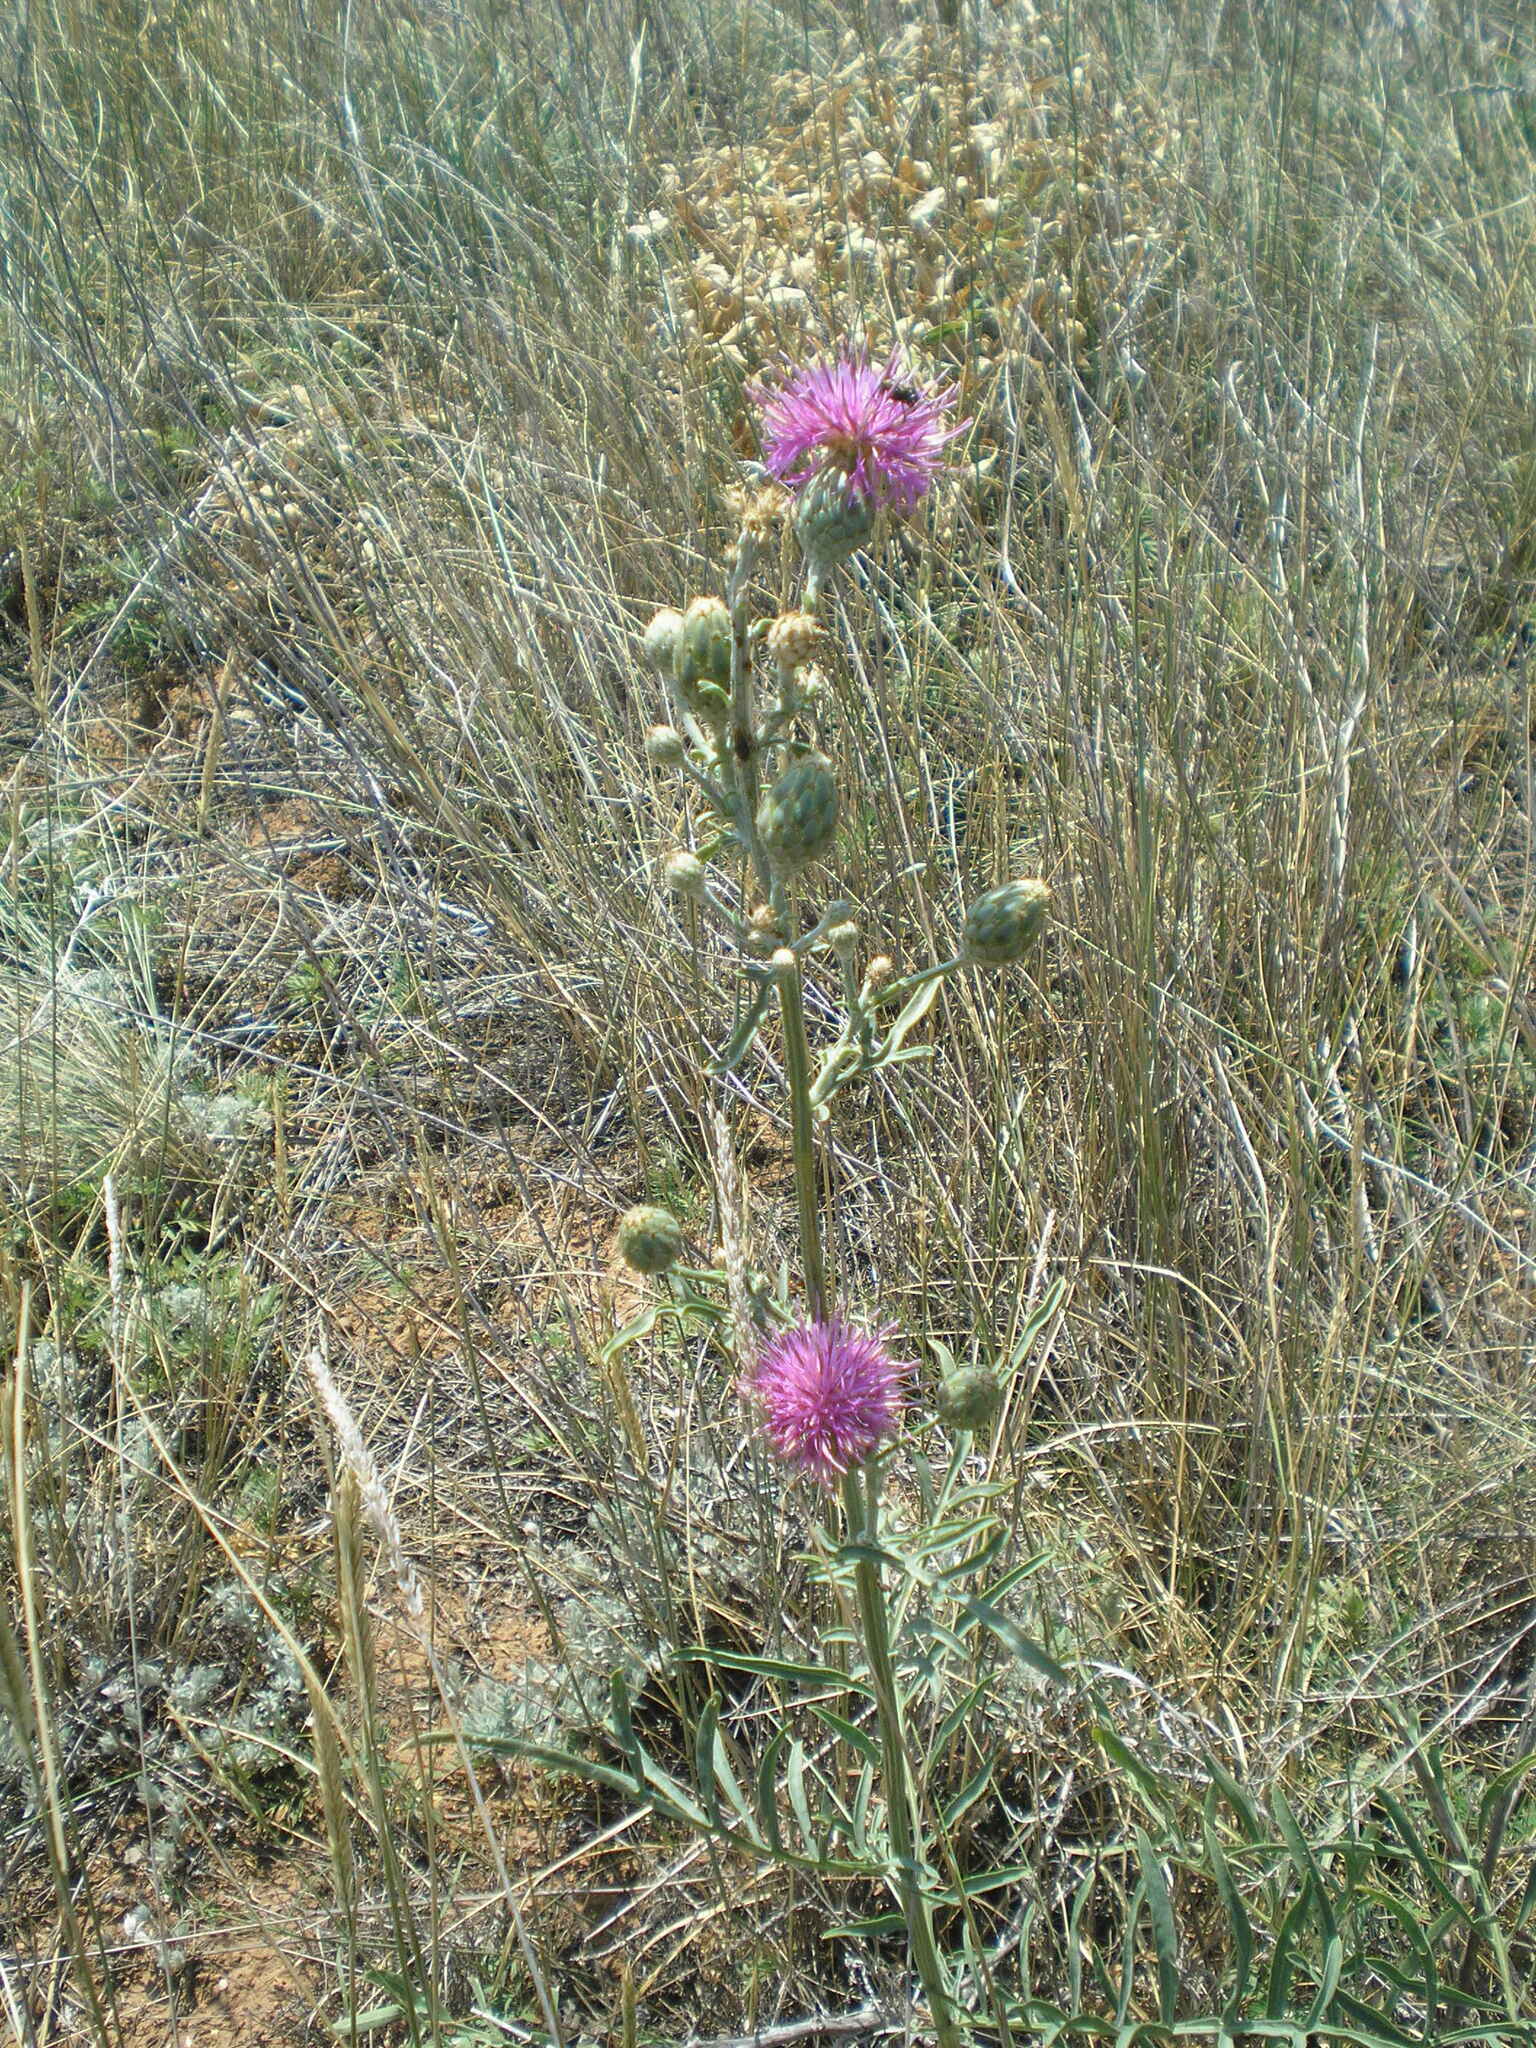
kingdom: Plantae
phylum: Tracheophyta
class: Magnoliopsida
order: Asterales
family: Asteraceae
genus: Centaurea
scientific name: Centaurea adpressa
